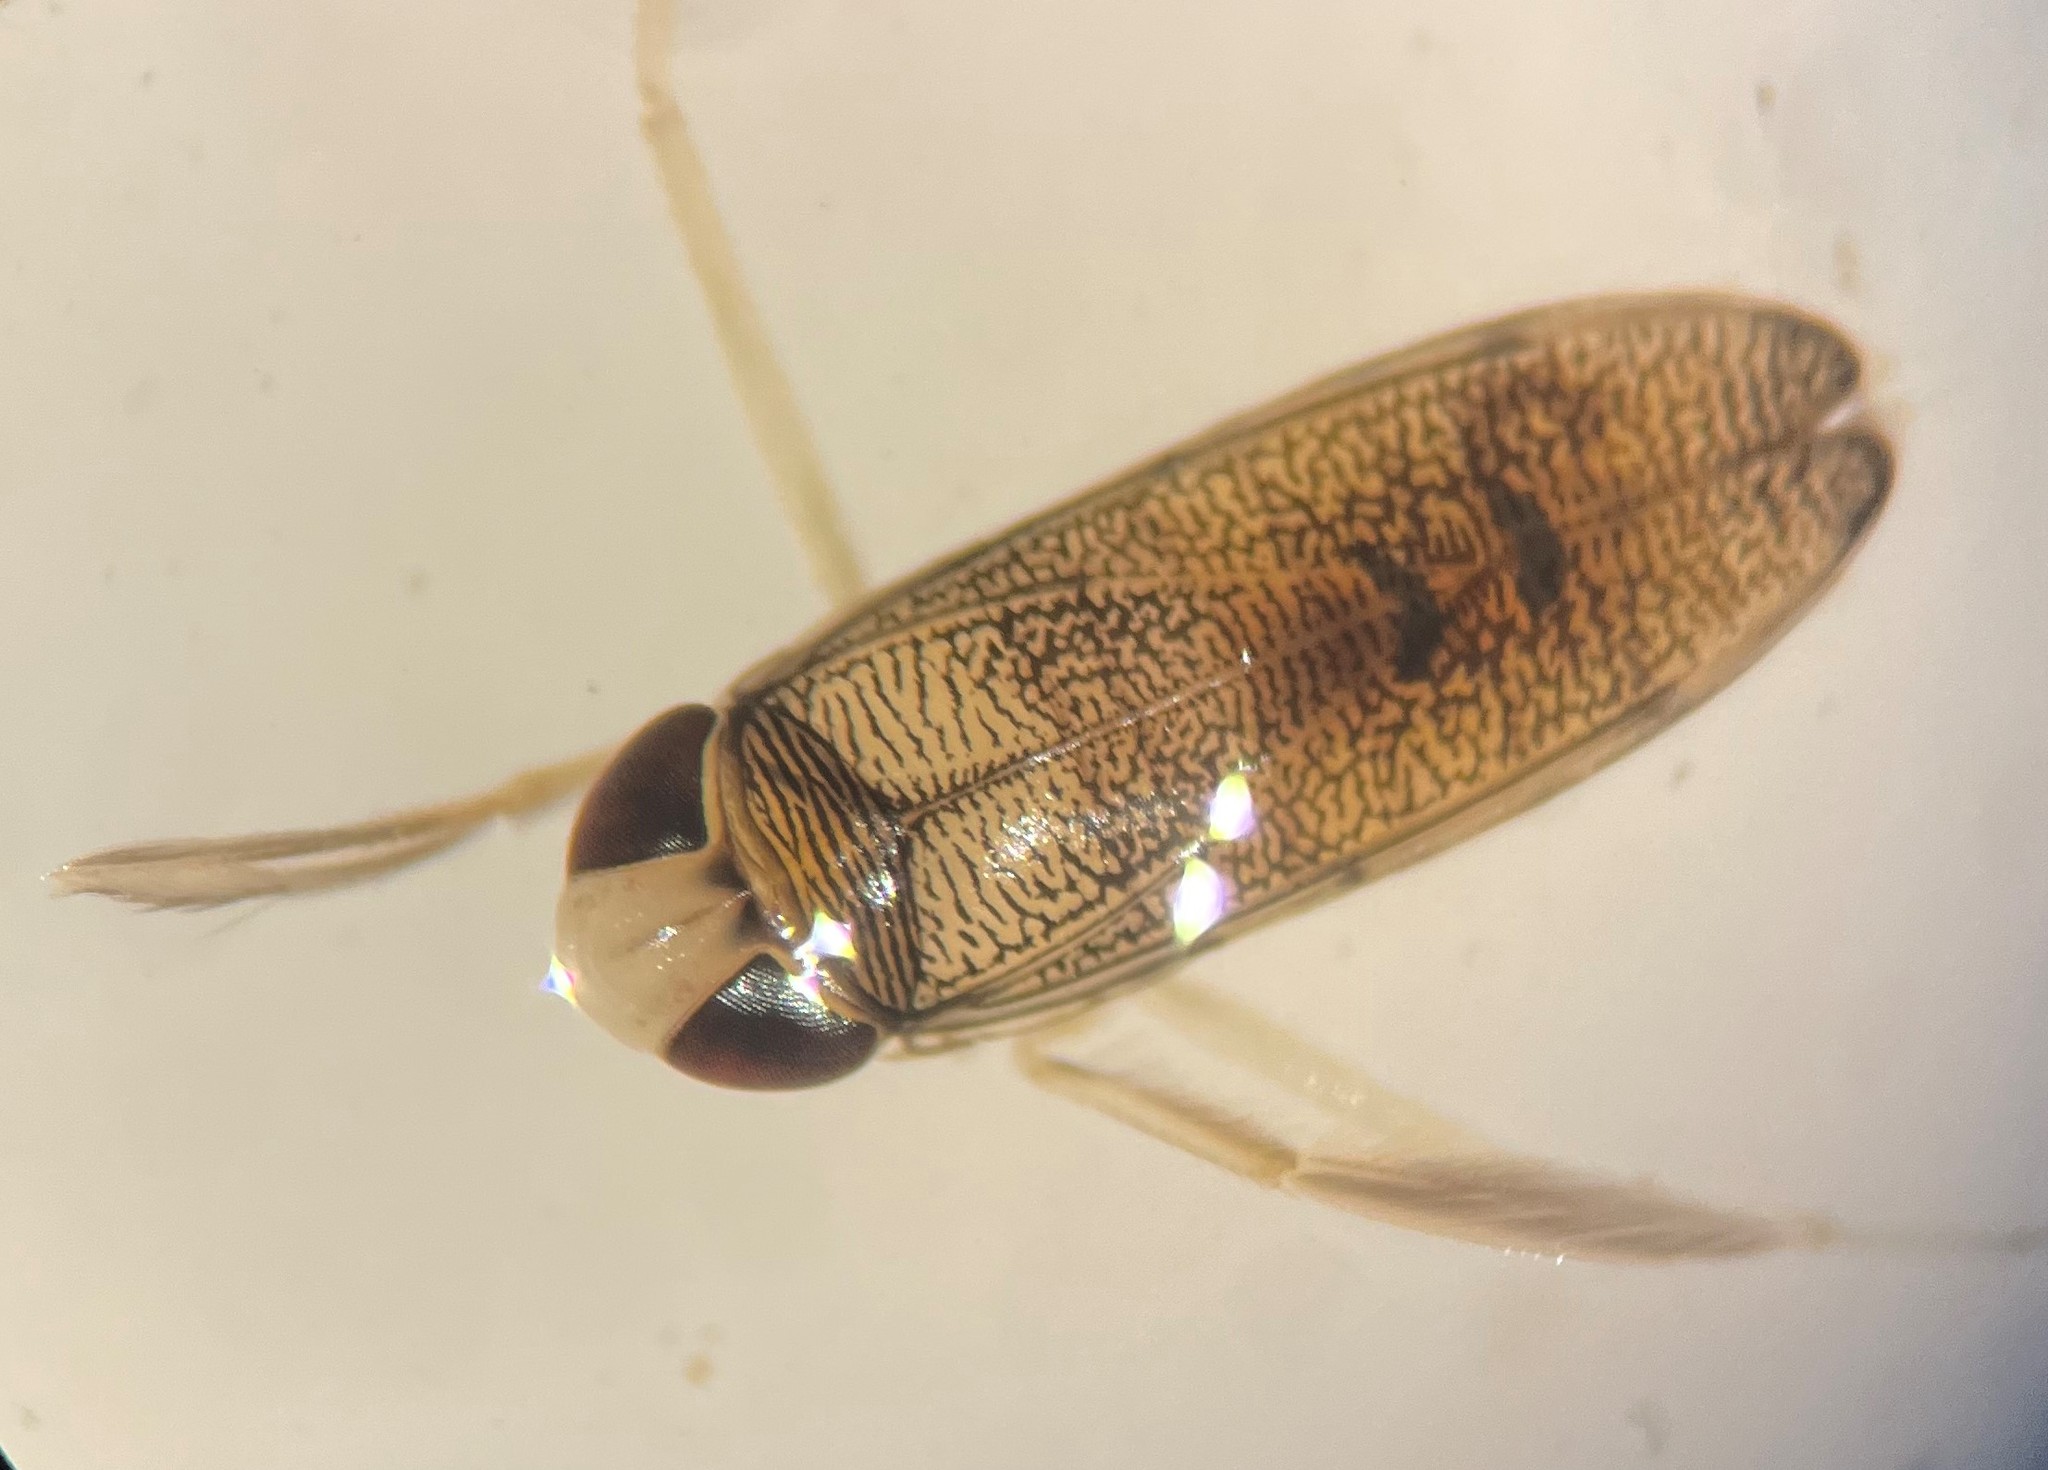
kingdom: Animalia
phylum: Arthropoda
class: Insecta
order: Hemiptera
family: Corixidae
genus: Palmacorixa
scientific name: Palmacorixa buenoi
